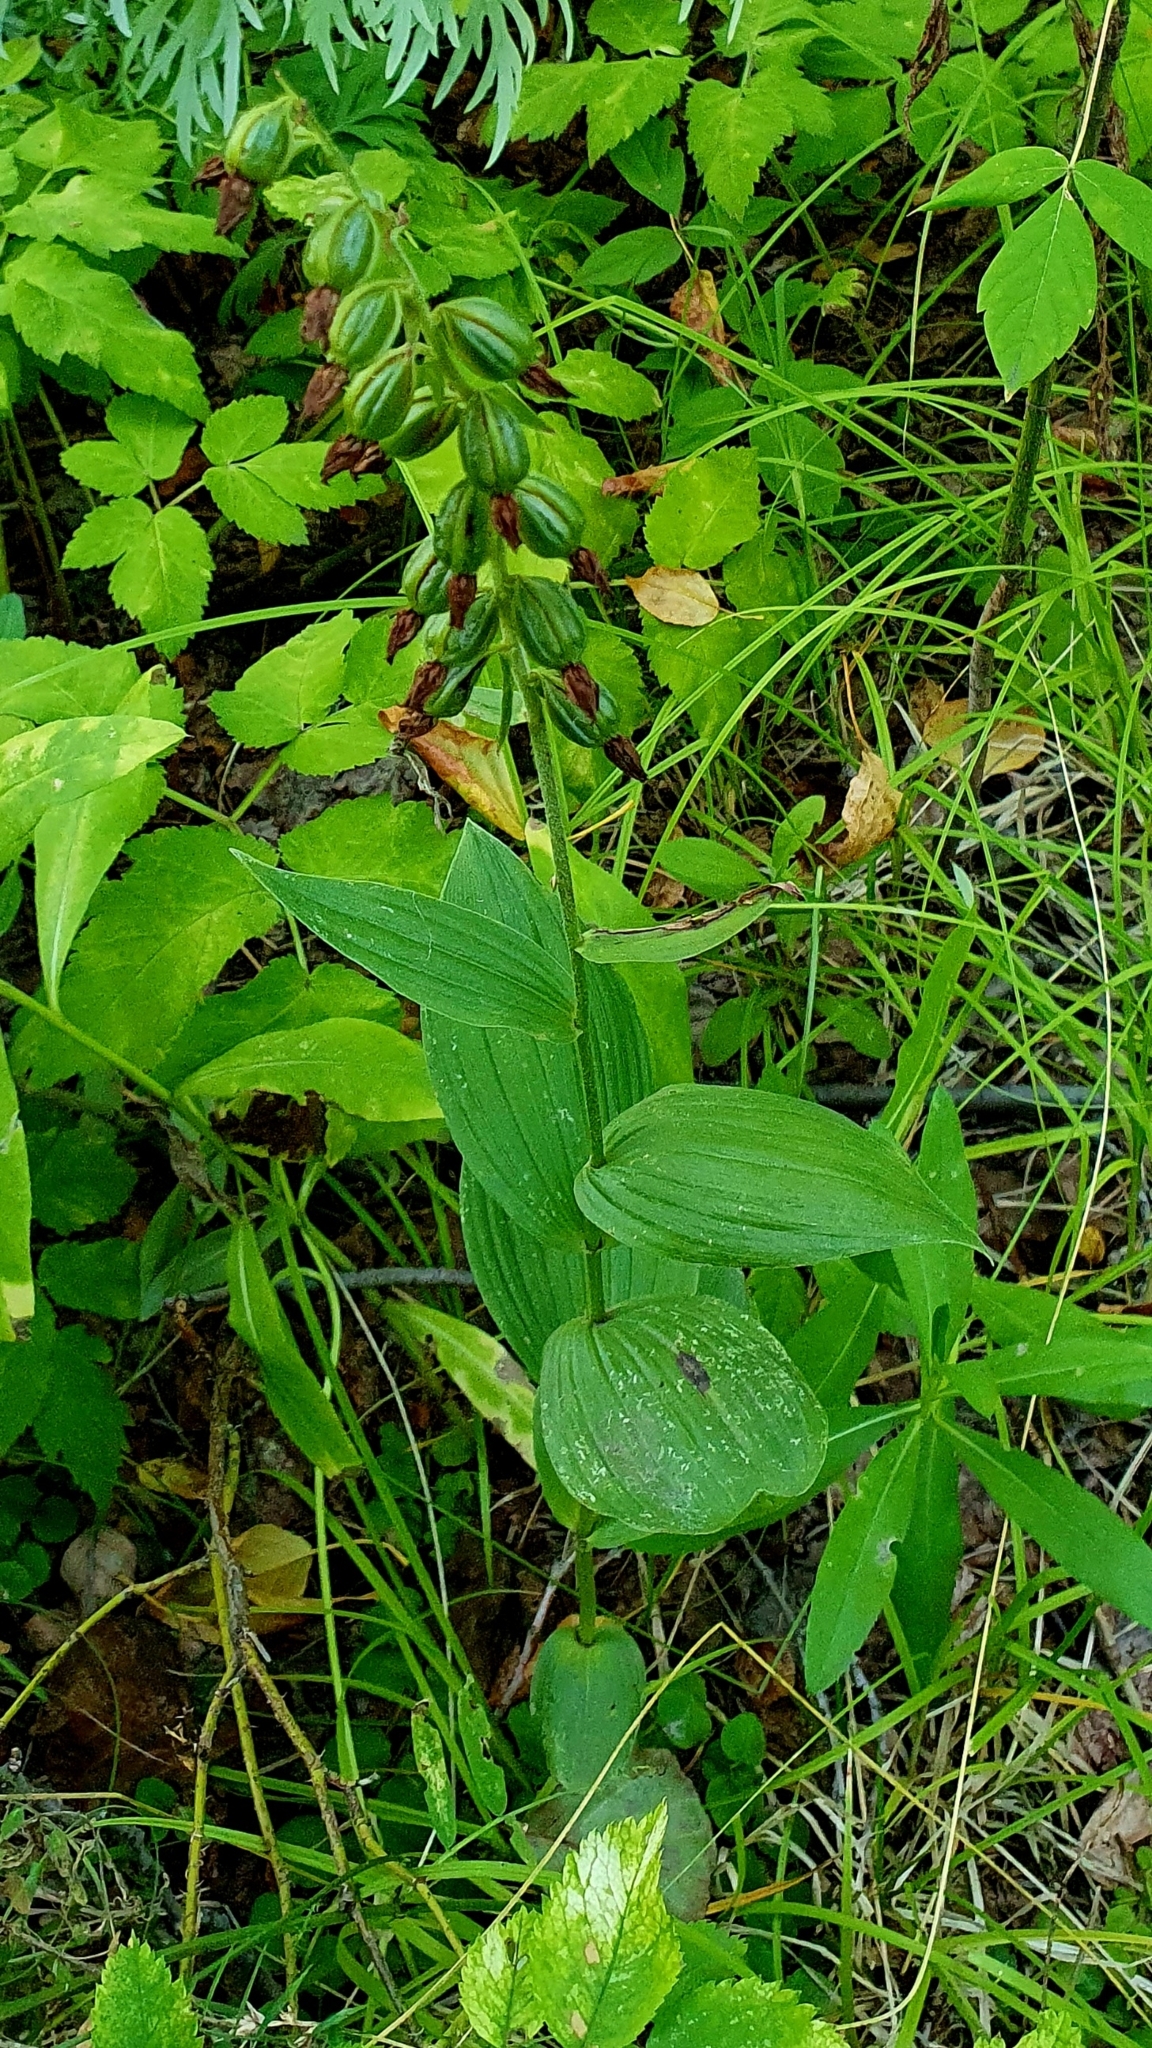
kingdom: Plantae
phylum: Tracheophyta
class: Liliopsida
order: Asparagales
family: Orchidaceae
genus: Epipactis
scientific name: Epipactis helleborine
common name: Broad-leaved helleborine
